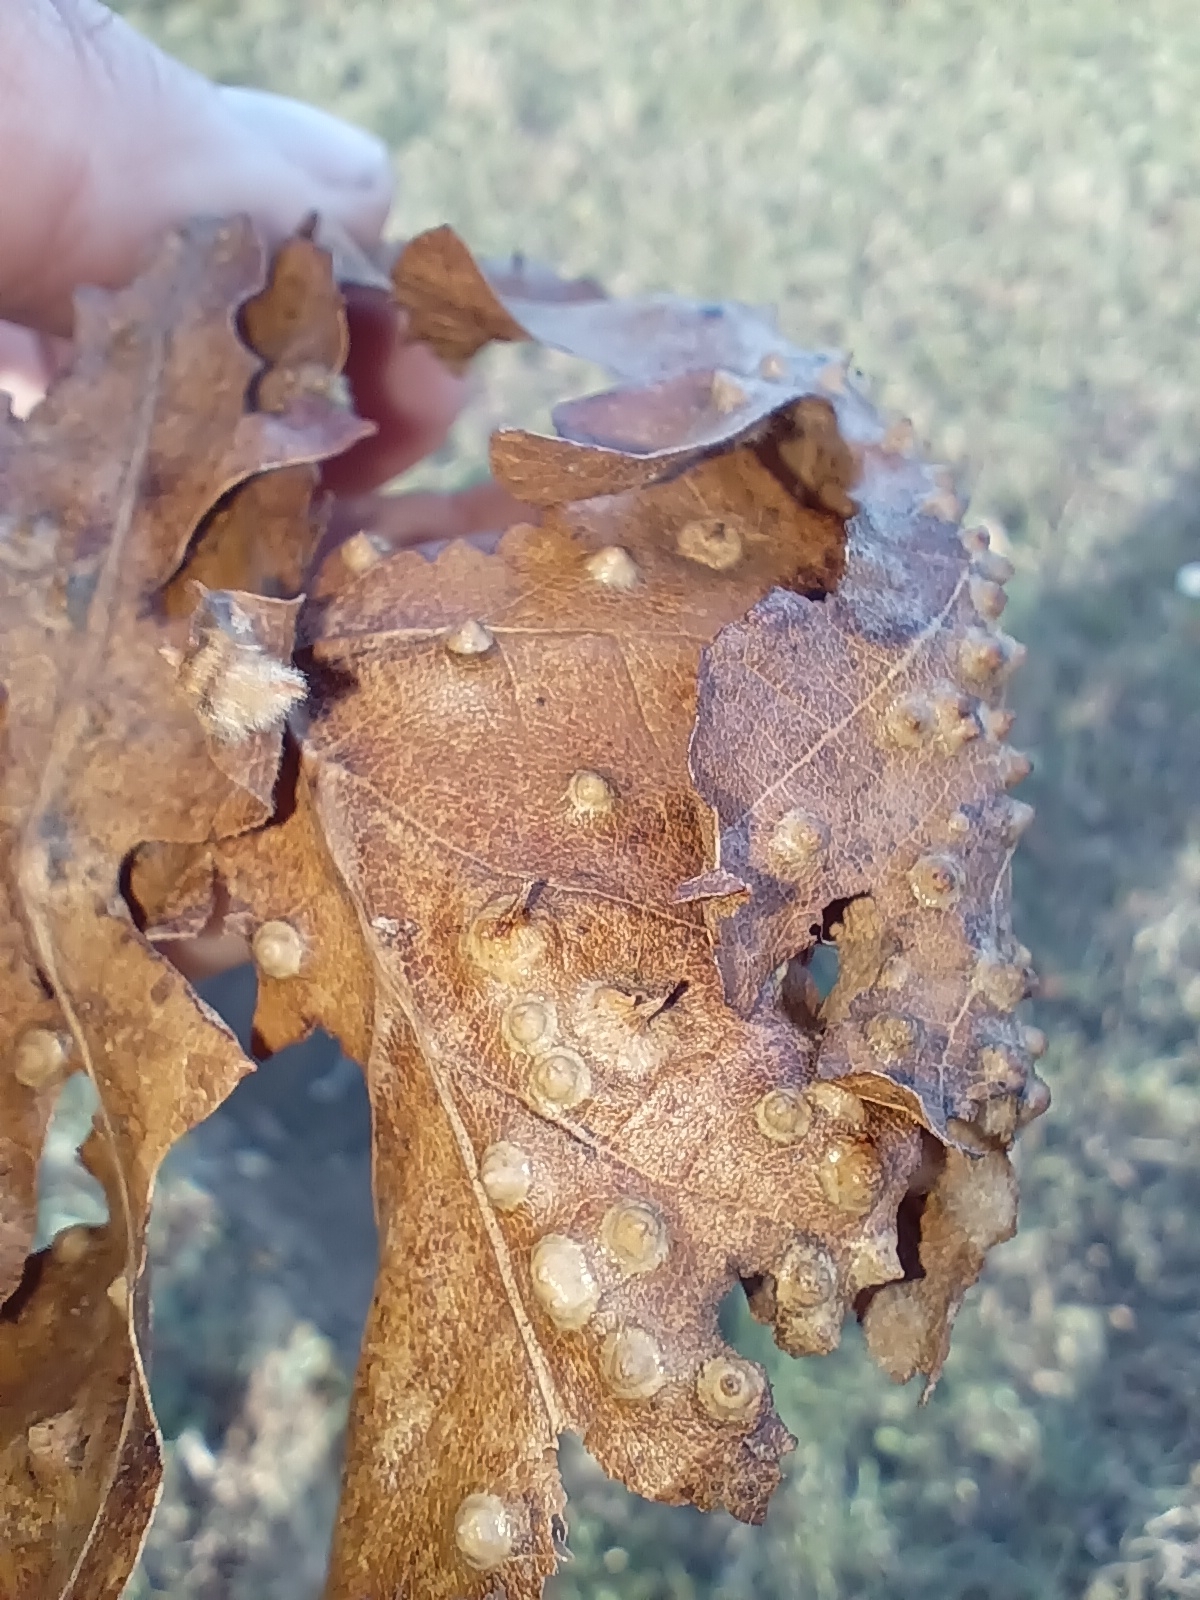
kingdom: Animalia
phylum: Arthropoda
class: Insecta
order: Diptera
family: Cecidomyiidae
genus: Dryomyia
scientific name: Dryomyia circinans
